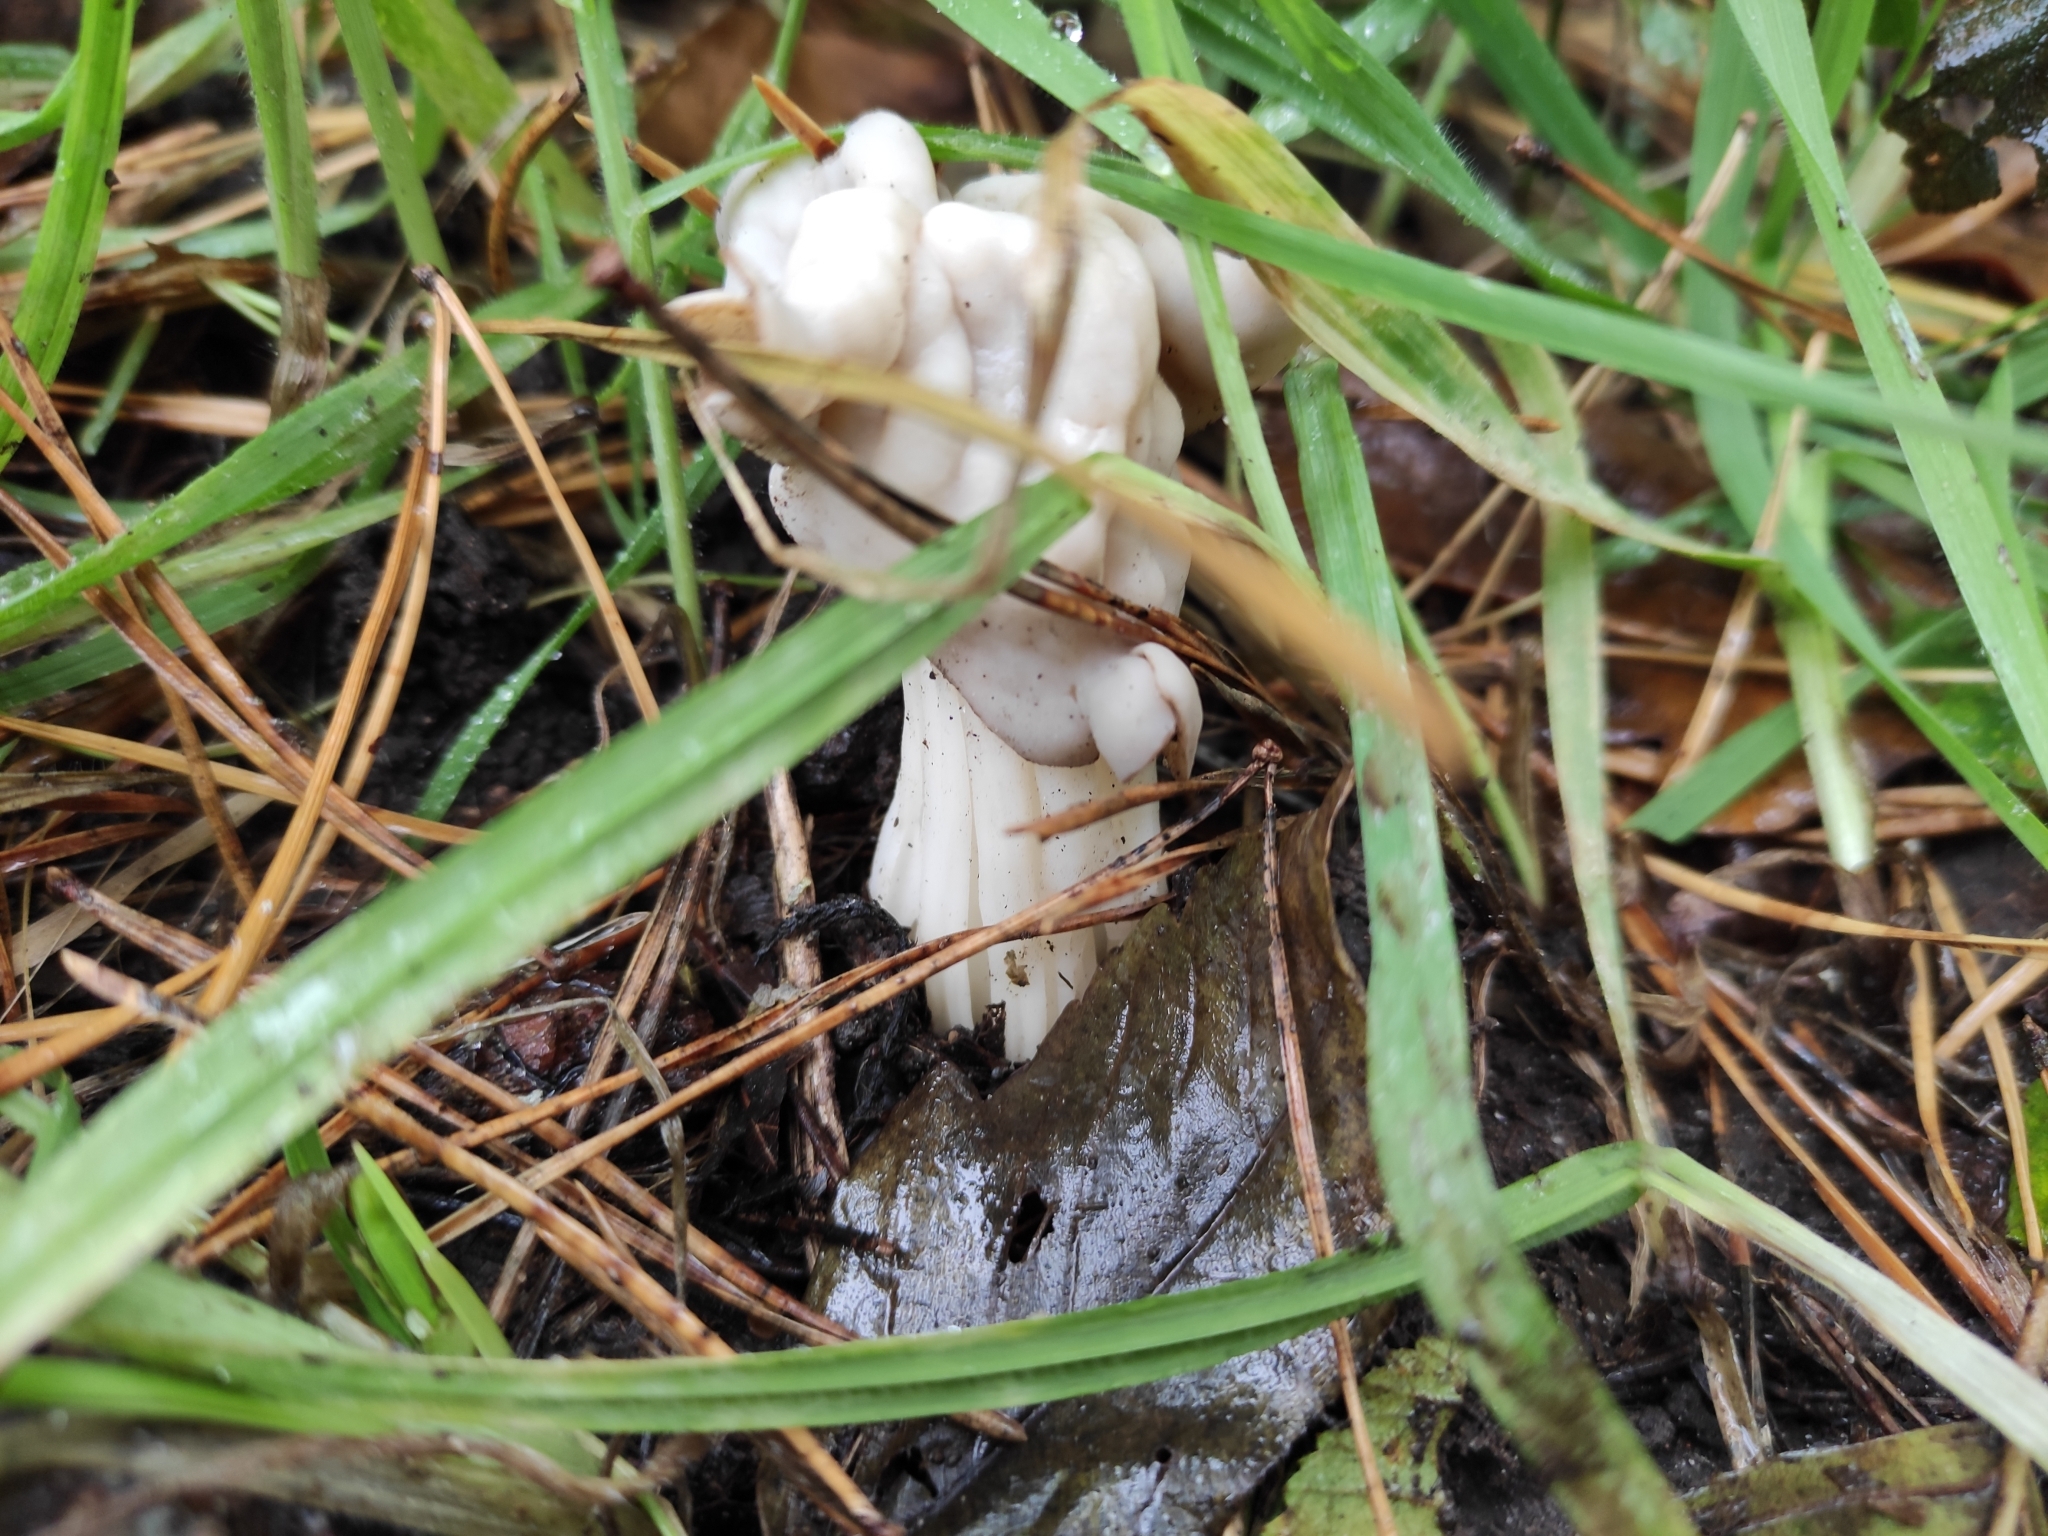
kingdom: Fungi
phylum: Ascomycota
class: Pezizomycetes
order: Pezizales
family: Helvellaceae
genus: Helvella
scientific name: Helvella crispa
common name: White saddle
